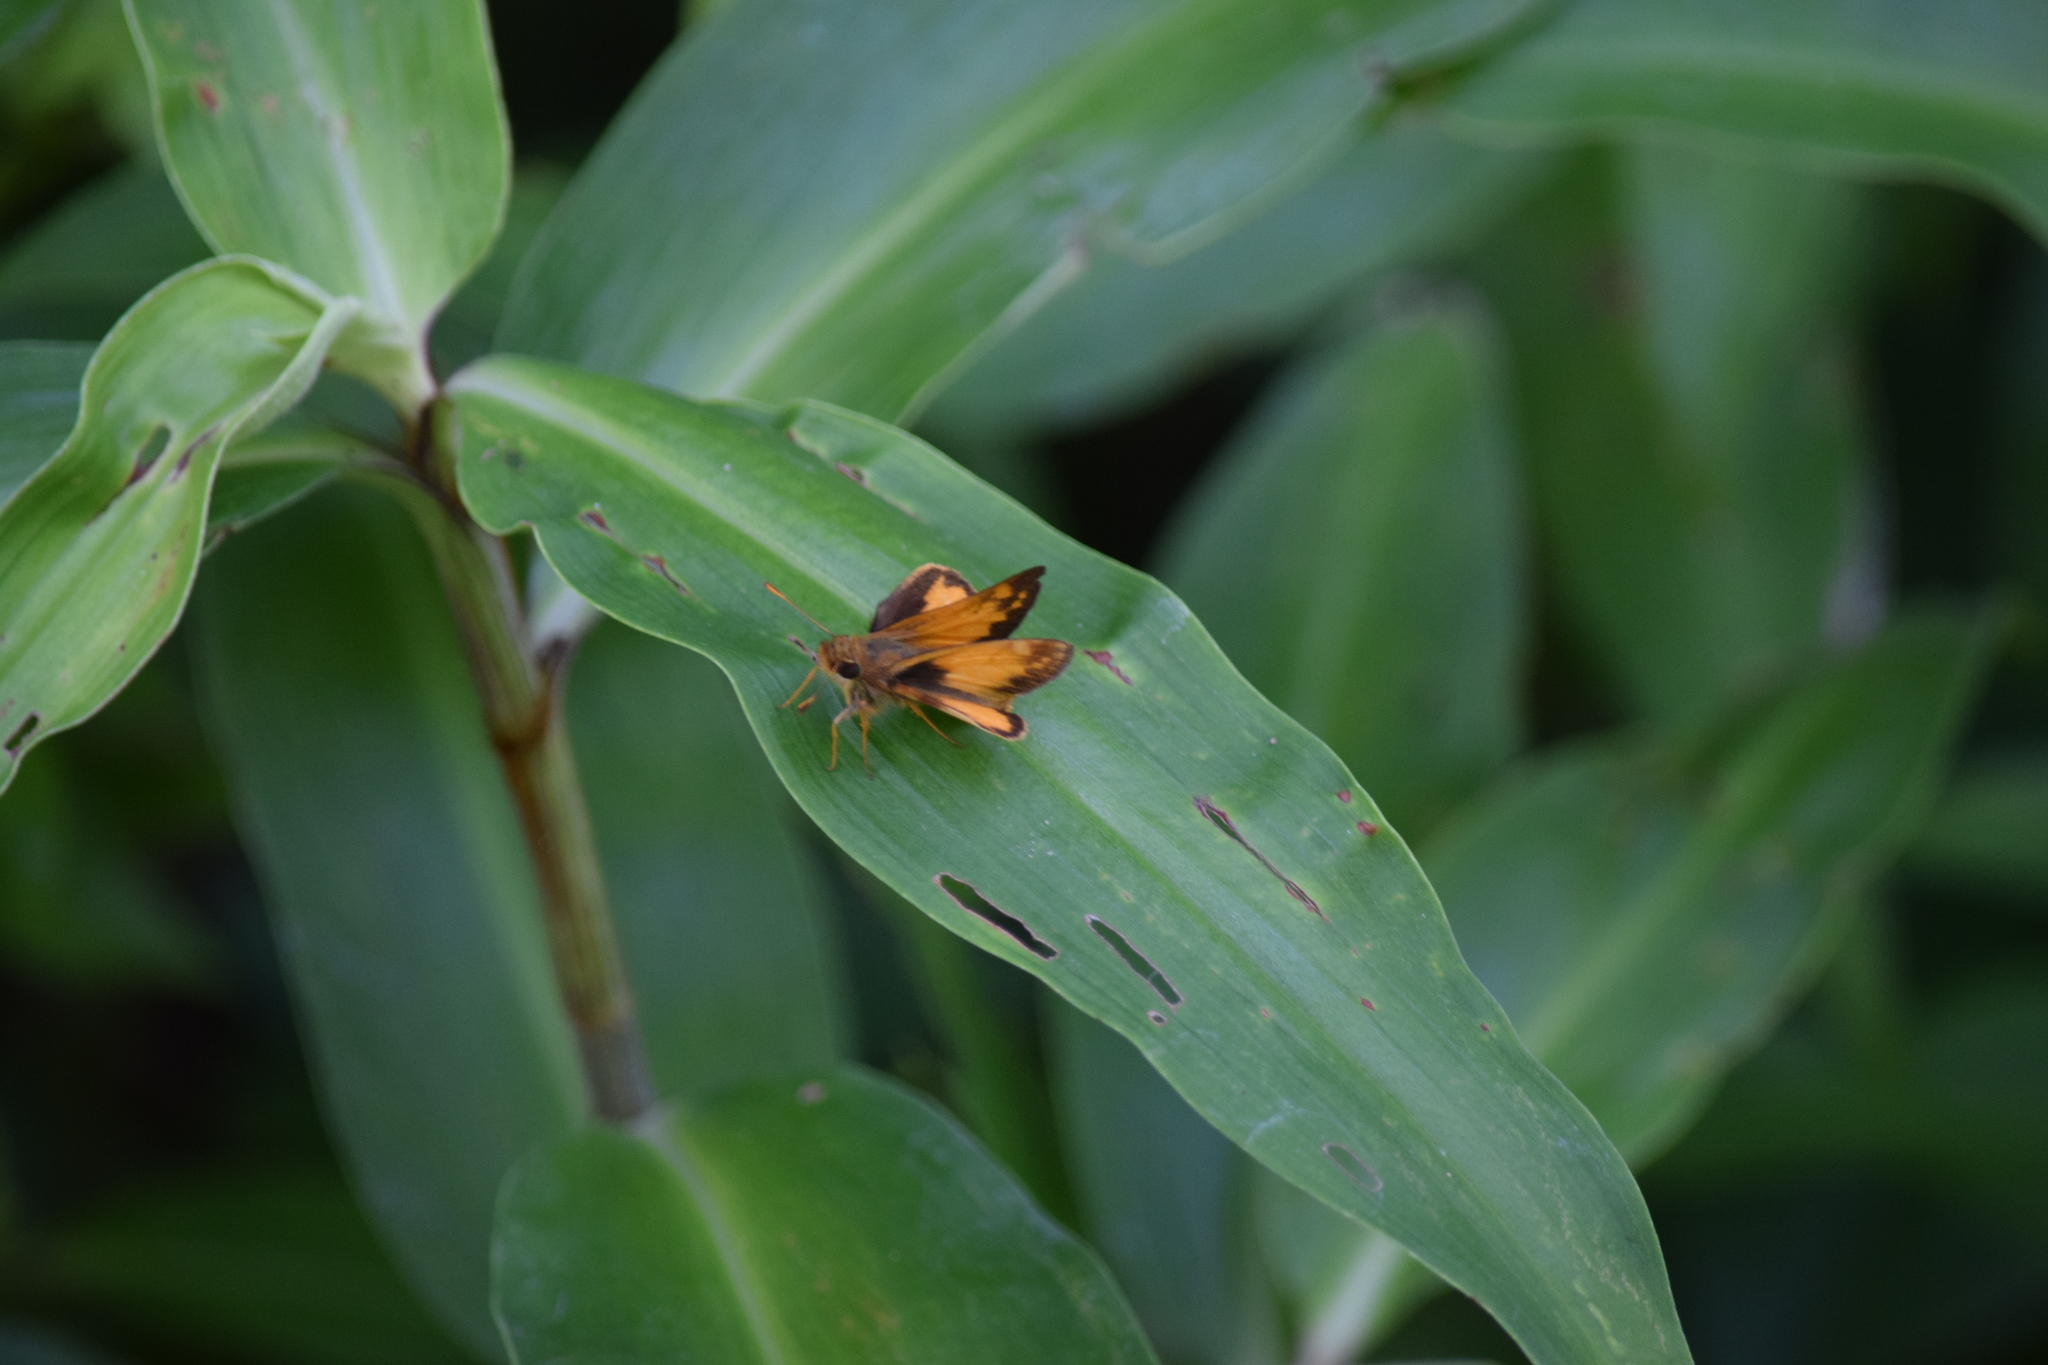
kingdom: Animalia
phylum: Arthropoda
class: Insecta
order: Lepidoptera
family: Hesperiidae
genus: Lon
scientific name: Lon zabulon
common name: Zabulon skipper
